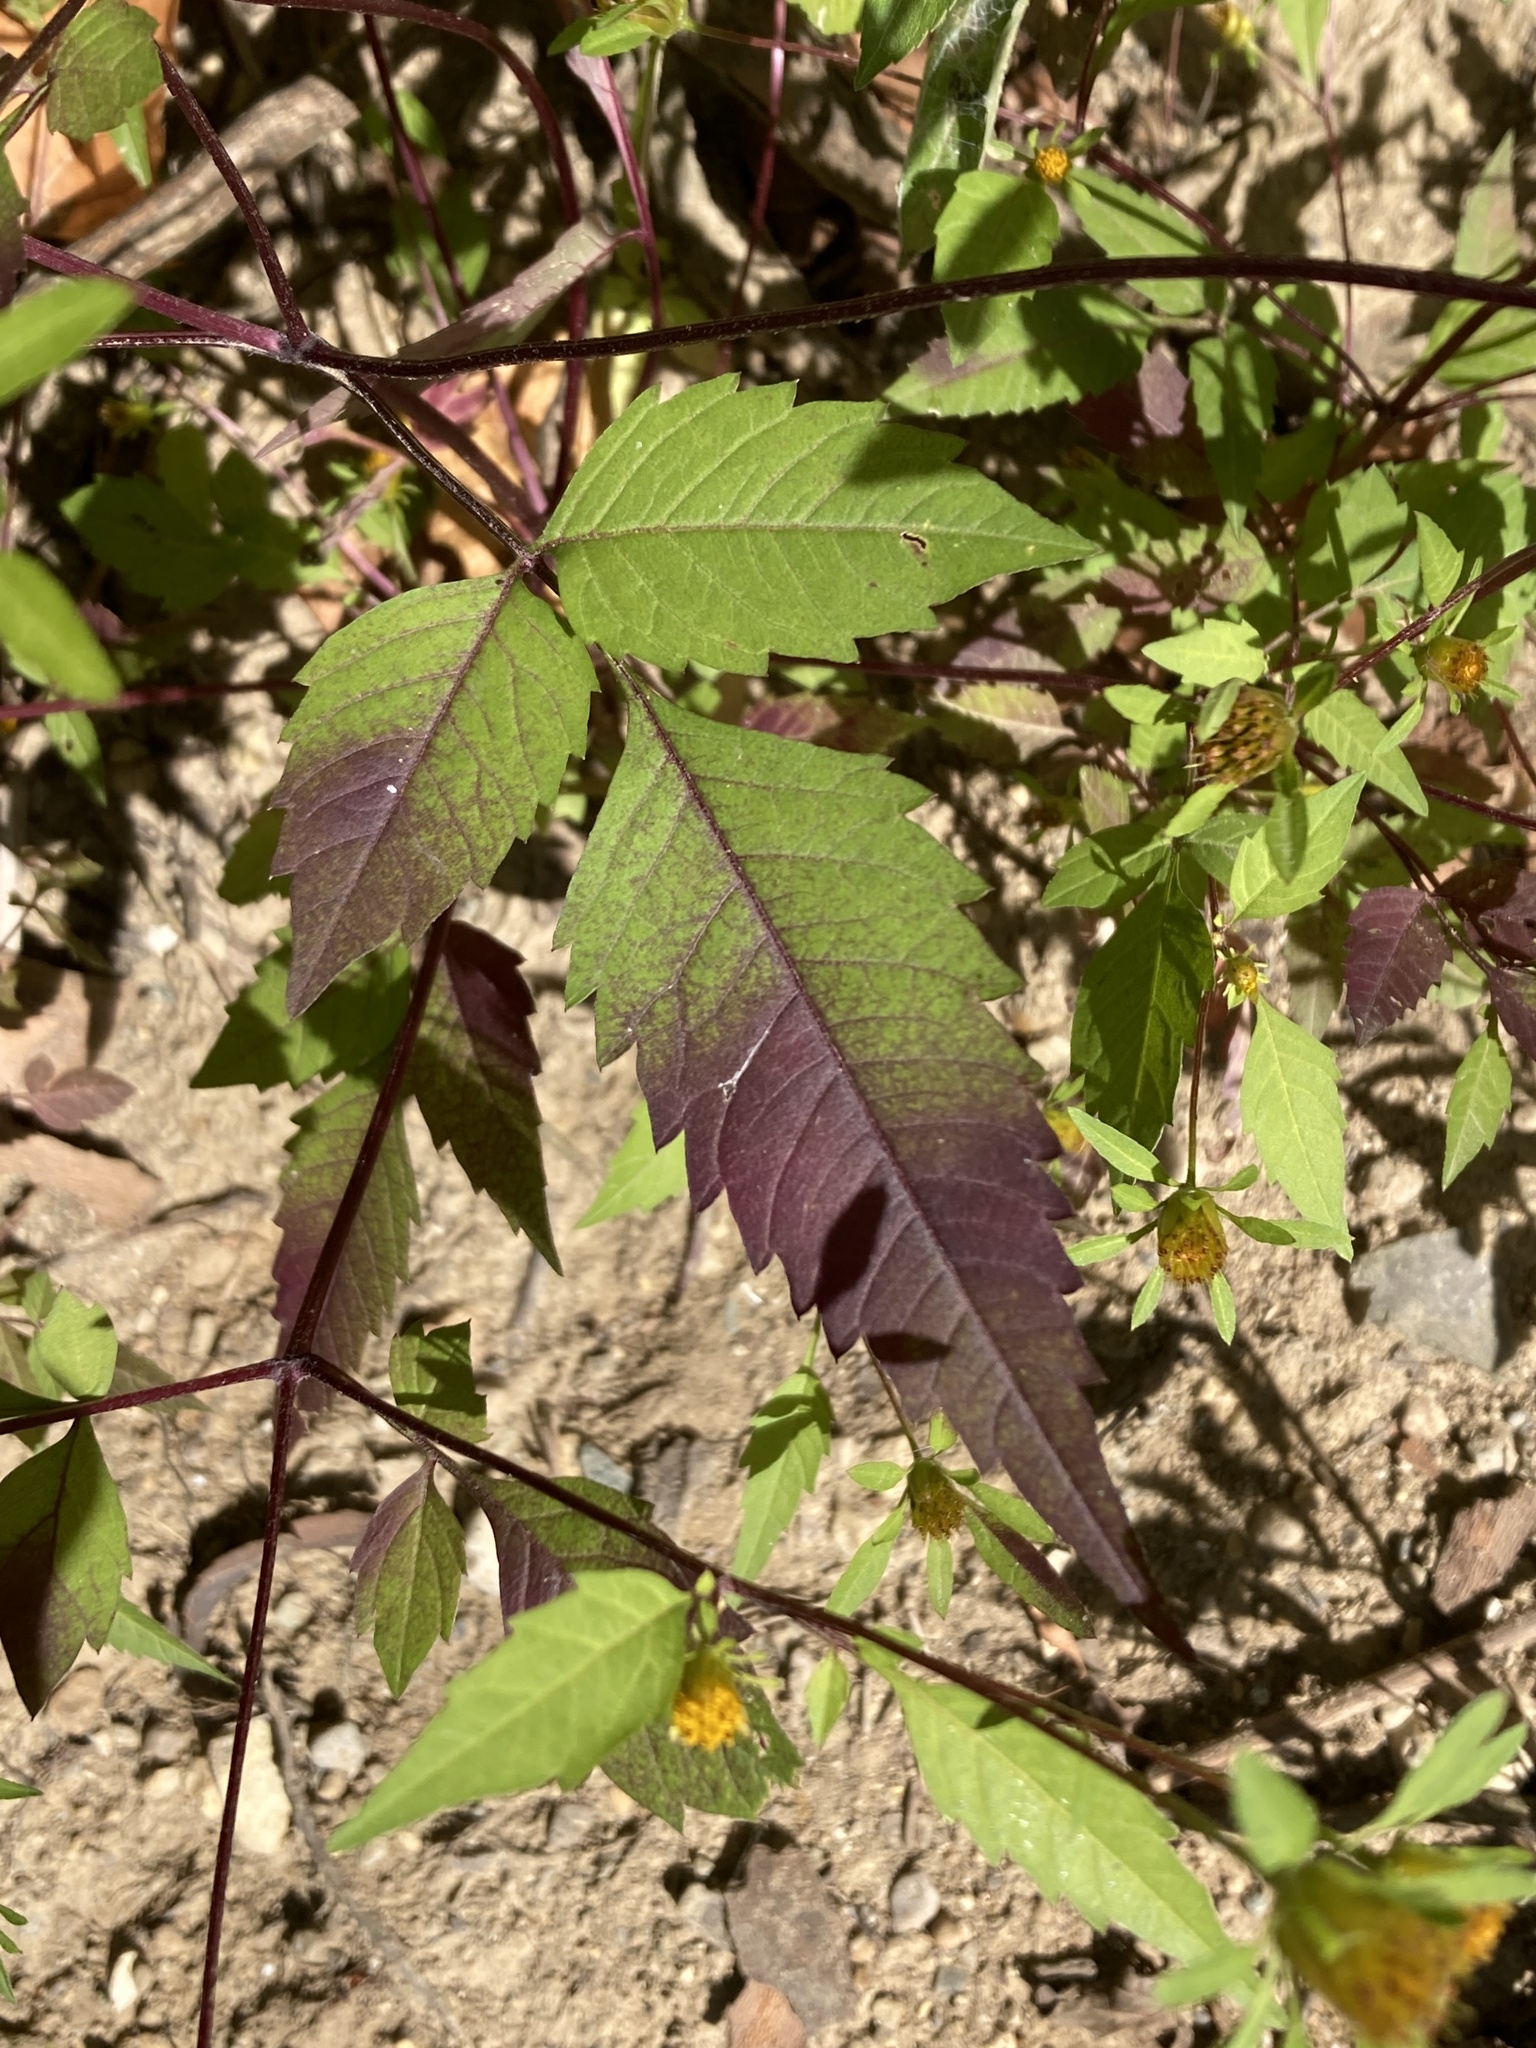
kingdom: Plantae
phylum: Tracheophyta
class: Magnoliopsida
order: Asterales
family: Asteraceae
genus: Bidens
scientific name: Bidens frondosa
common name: Beggarticks
